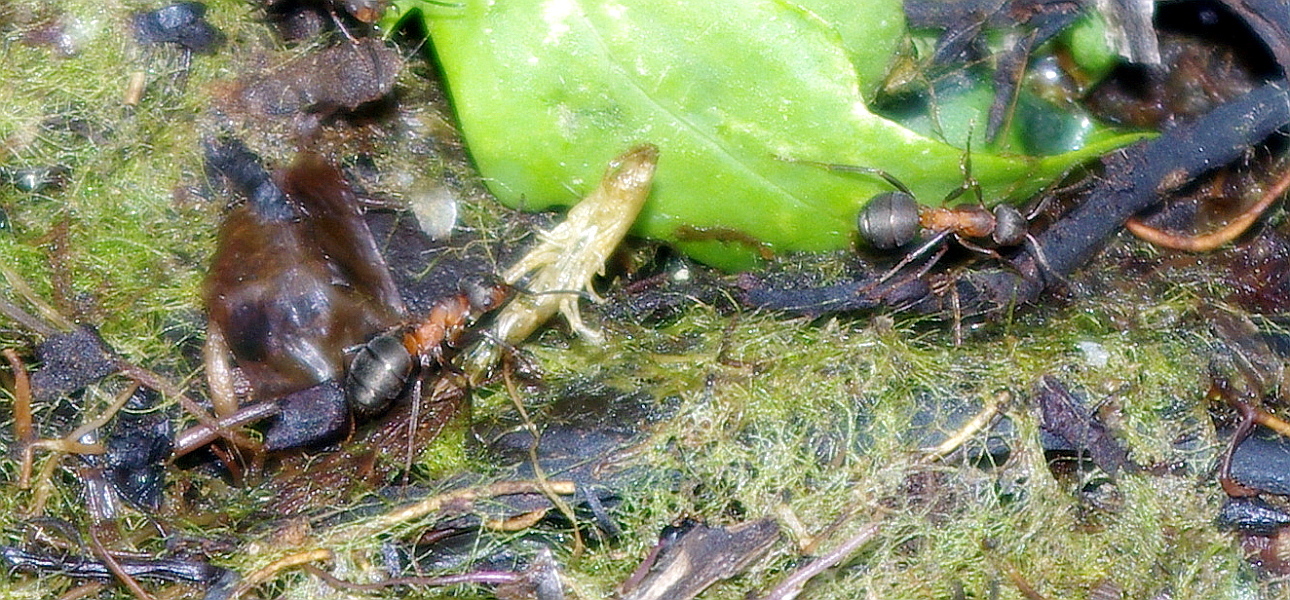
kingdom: Animalia
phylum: Arthropoda
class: Insecta
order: Hymenoptera
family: Formicidae
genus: Formica
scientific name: Formica
